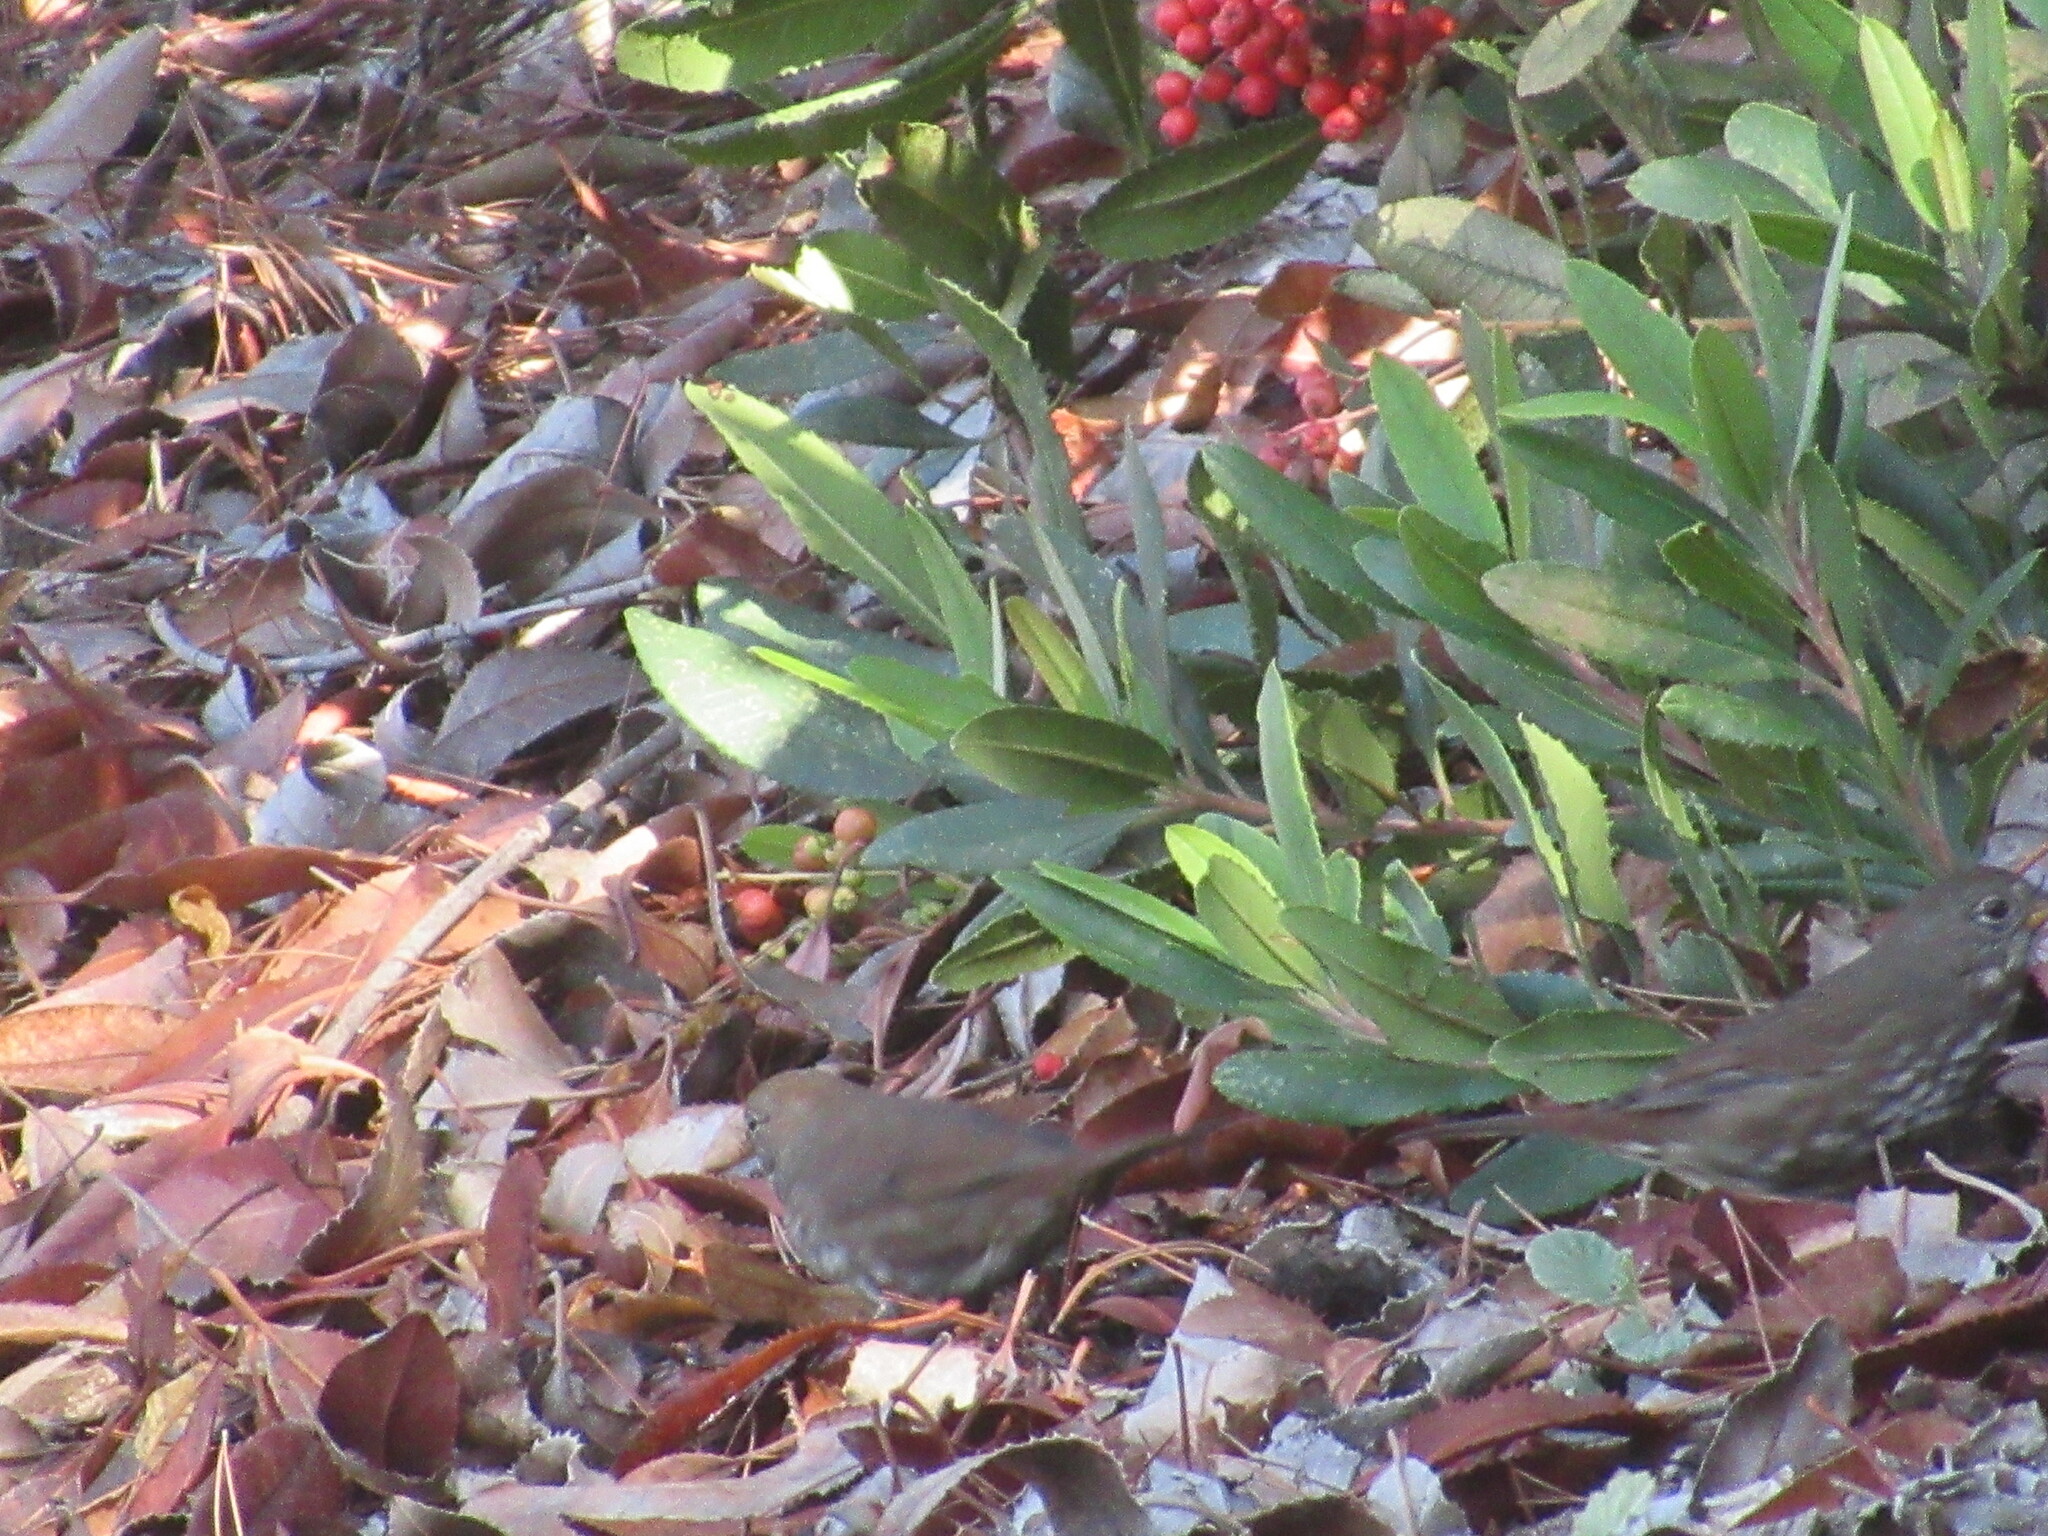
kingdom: Animalia
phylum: Chordata
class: Aves
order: Passeriformes
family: Passerellidae
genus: Passerella
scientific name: Passerella iliaca
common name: Fox sparrow
